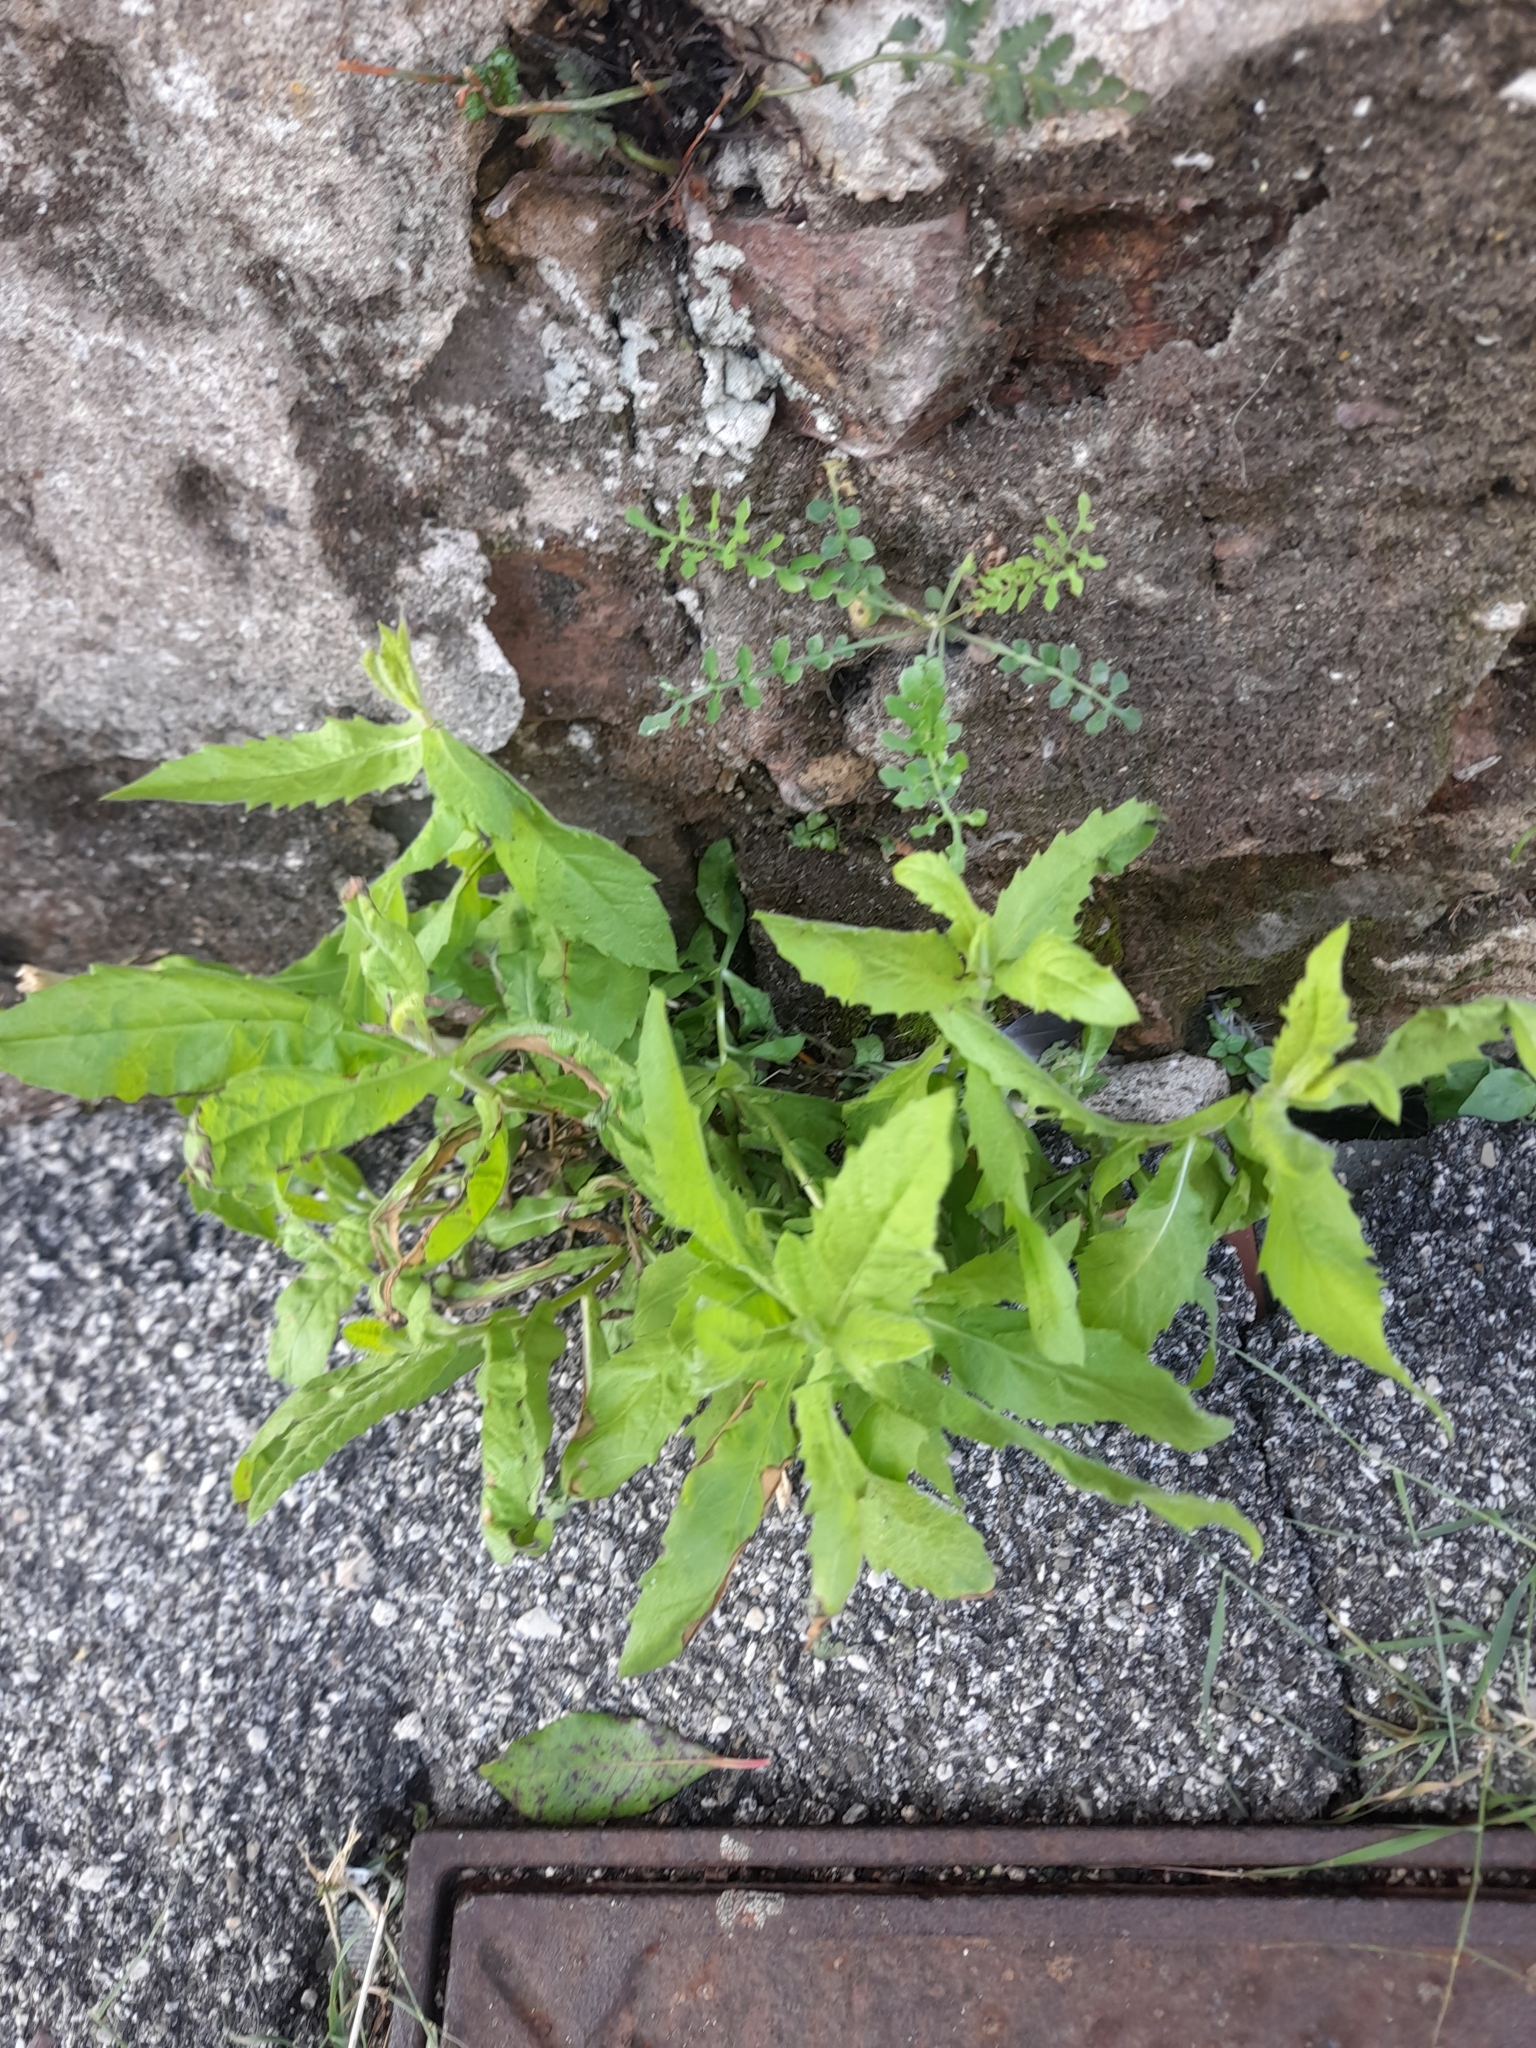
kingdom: Plantae
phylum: Tracheophyta
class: Magnoliopsida
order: Asterales
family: Asteraceae
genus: Dittrichia
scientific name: Dittrichia viscosa
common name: Woody fleabane
